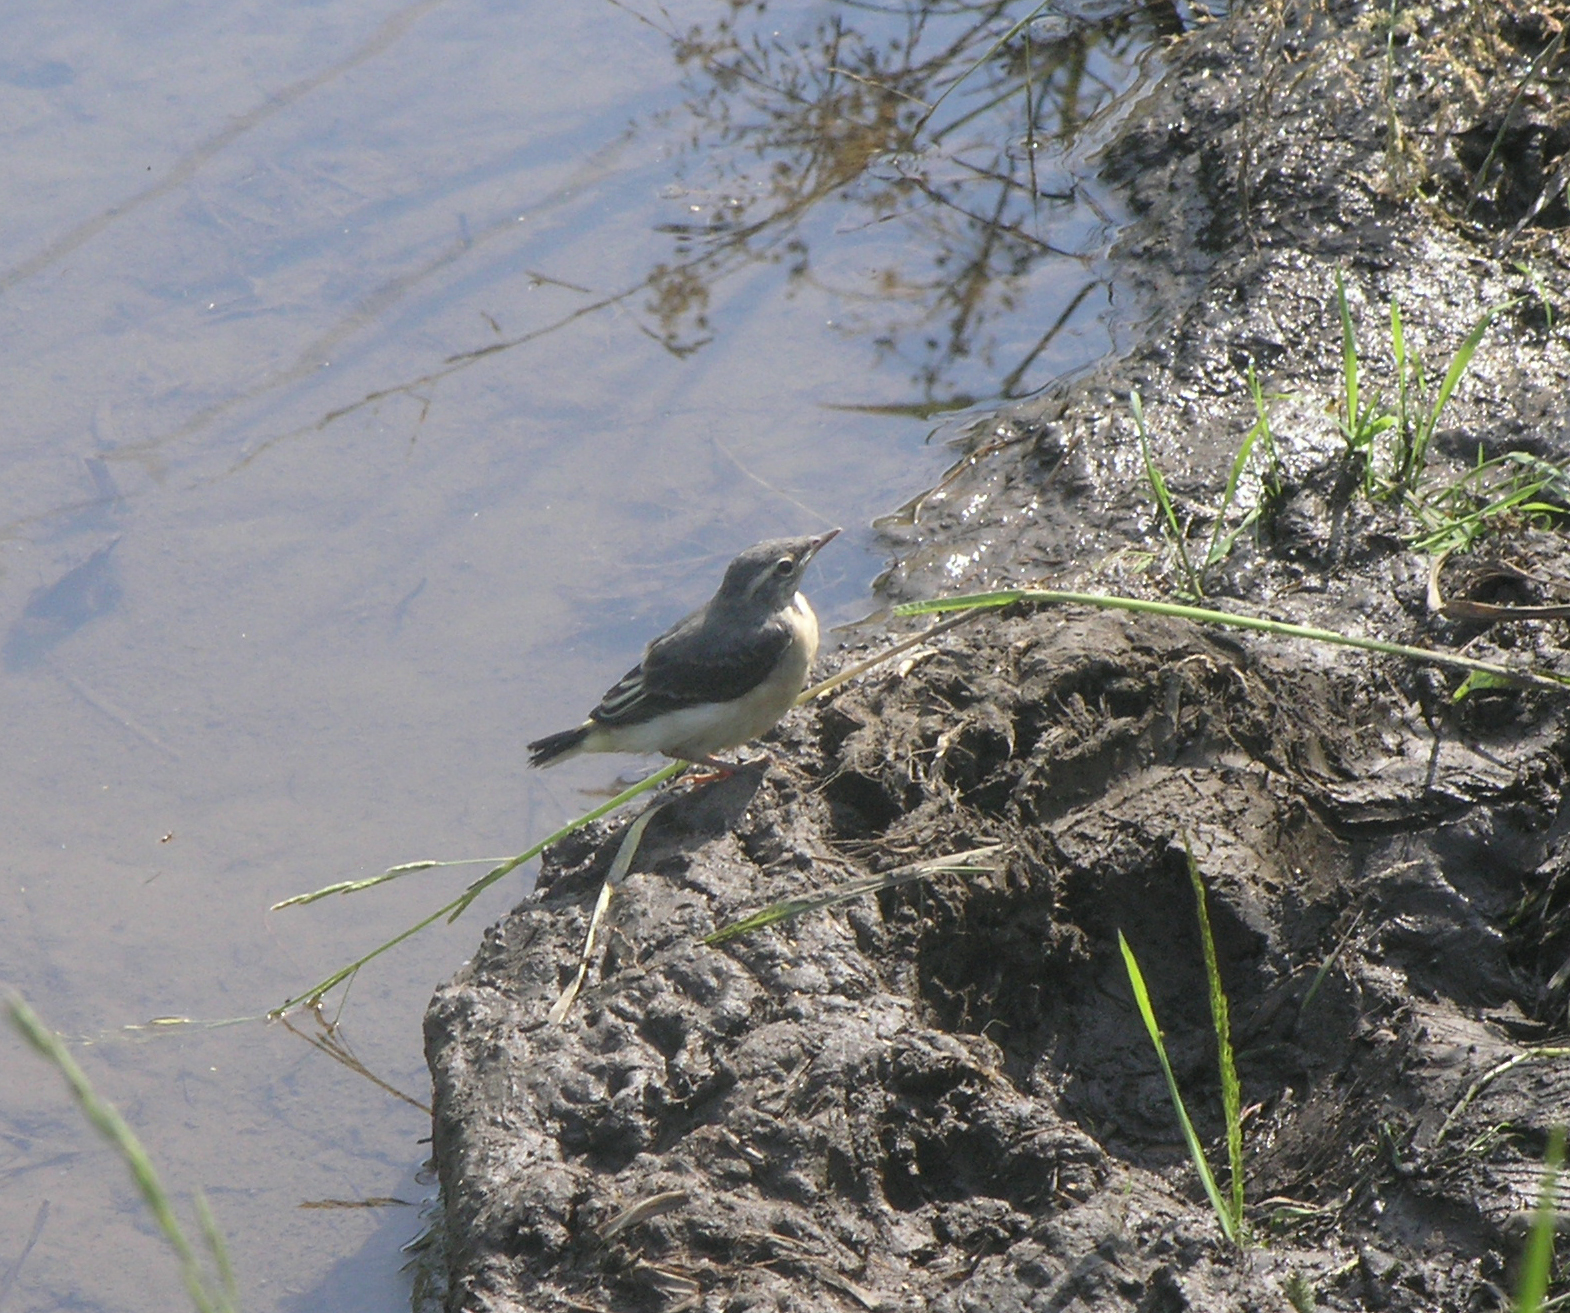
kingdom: Animalia
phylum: Chordata
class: Aves
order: Passeriformes
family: Motacillidae
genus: Motacilla
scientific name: Motacilla cinerea
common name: Grey wagtail
